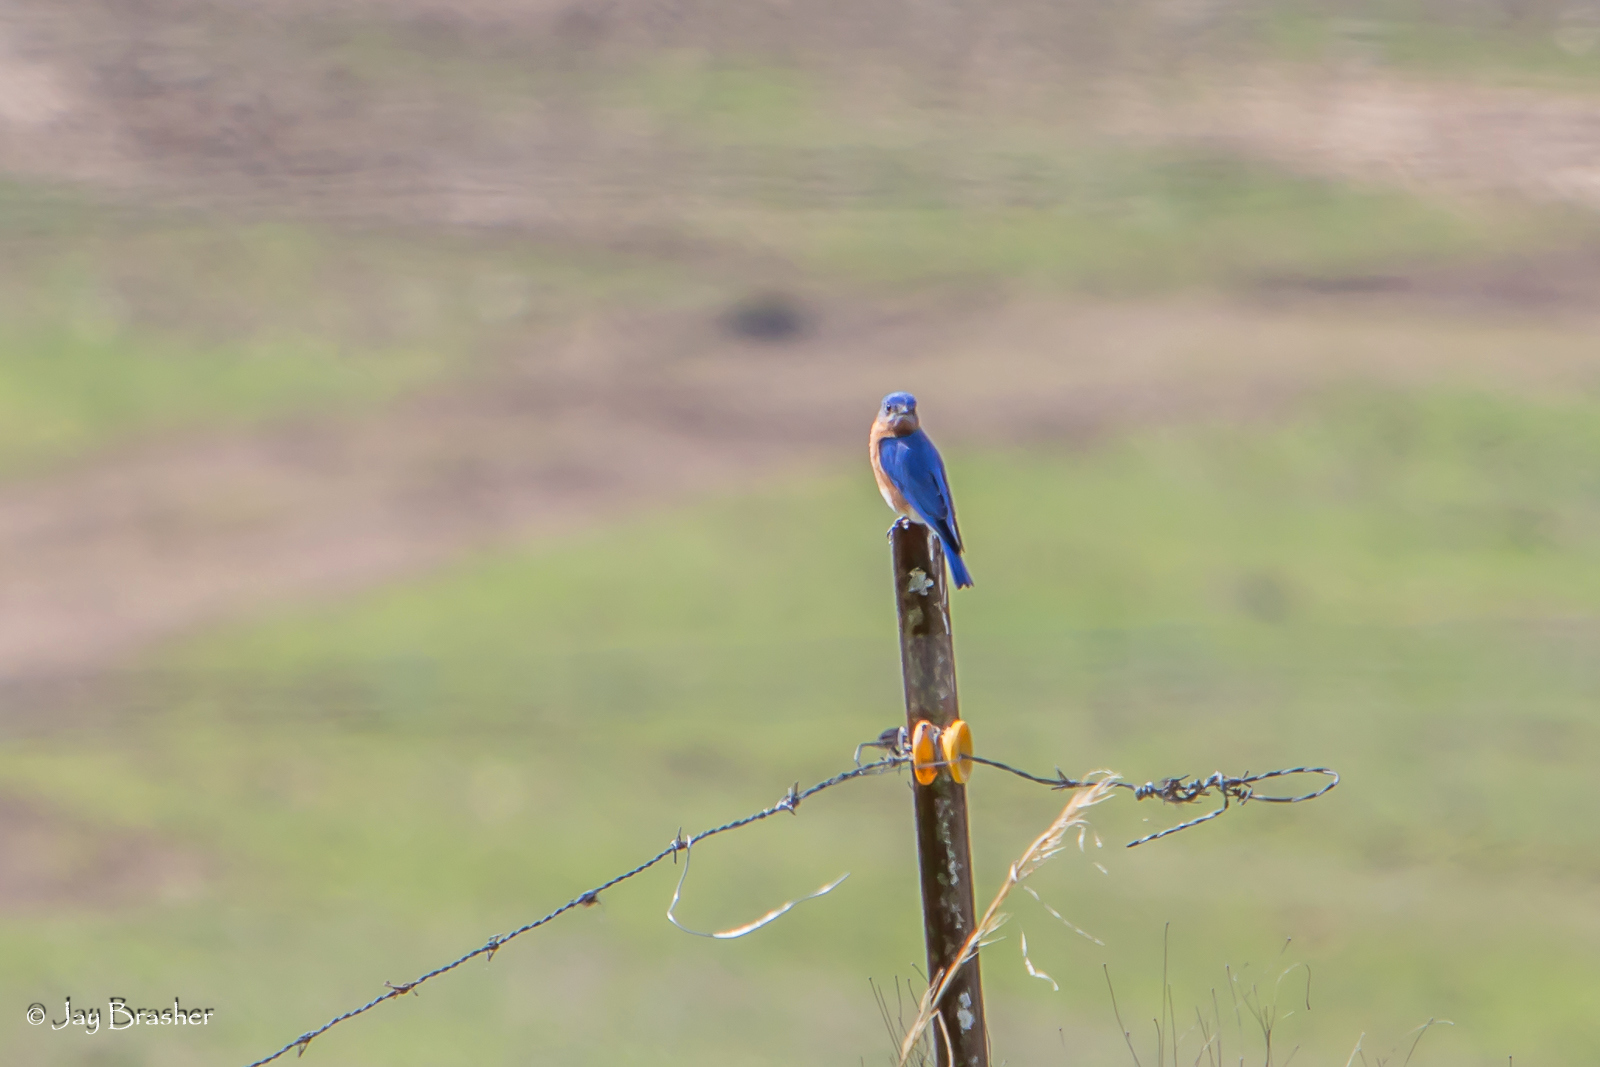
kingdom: Animalia
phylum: Chordata
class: Aves
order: Passeriformes
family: Turdidae
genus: Sialia
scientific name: Sialia sialis
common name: Eastern bluebird
